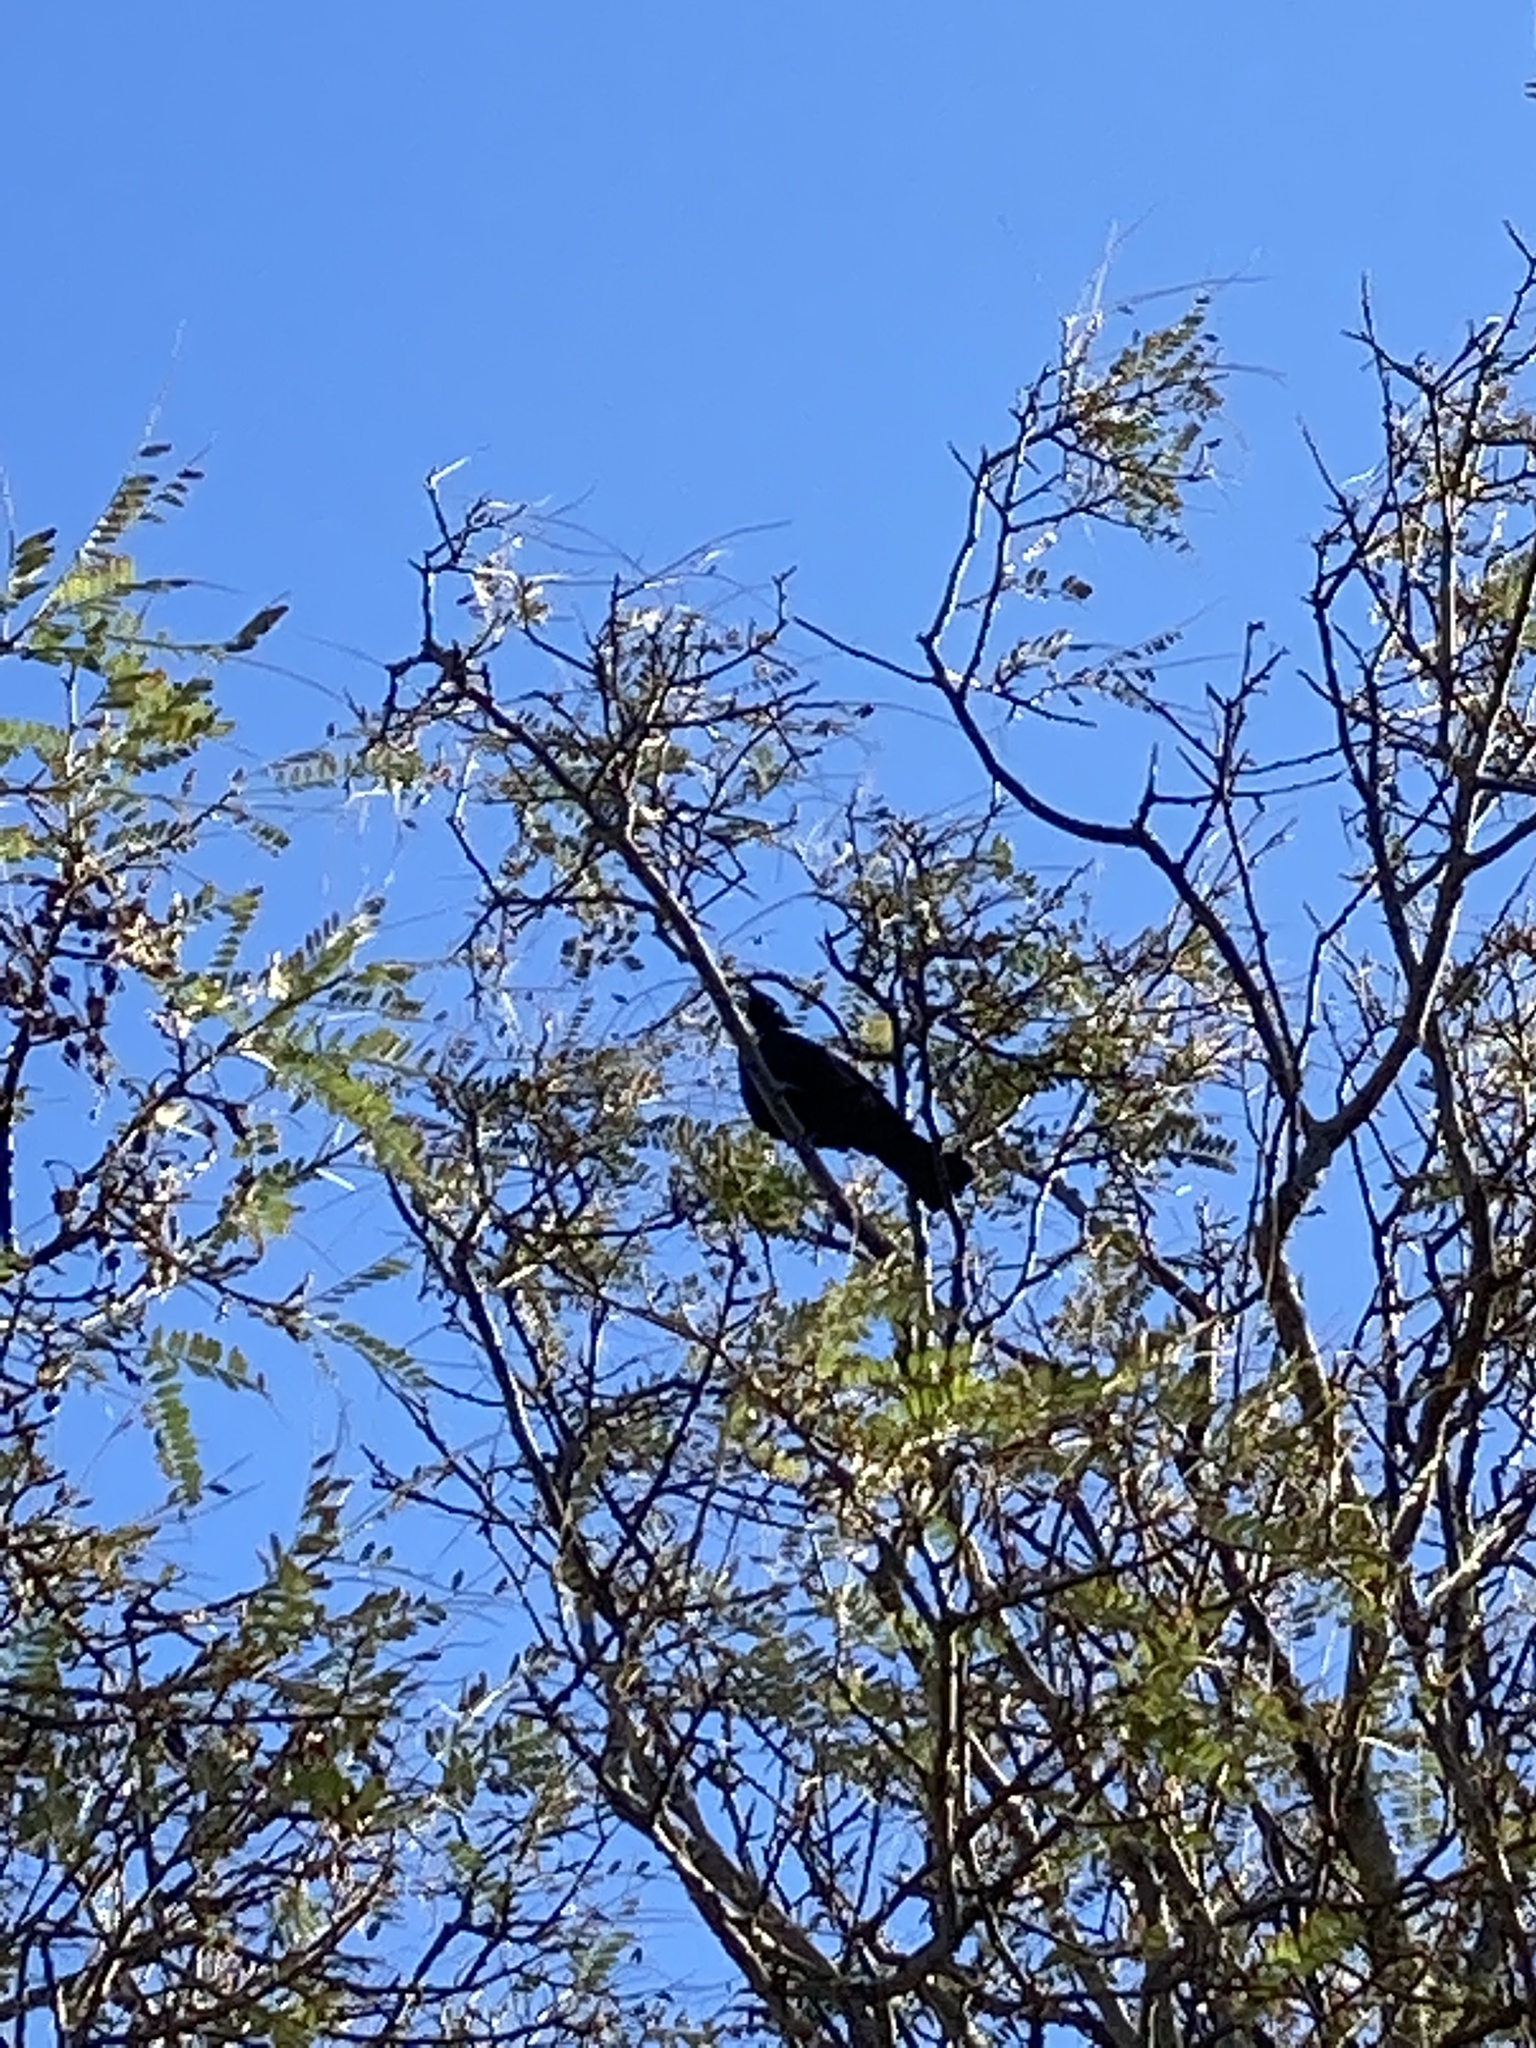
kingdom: Animalia
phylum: Chordata
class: Aves
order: Passeriformes
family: Meliphagidae
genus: Prosthemadera
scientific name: Prosthemadera novaeseelandiae
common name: Tui
